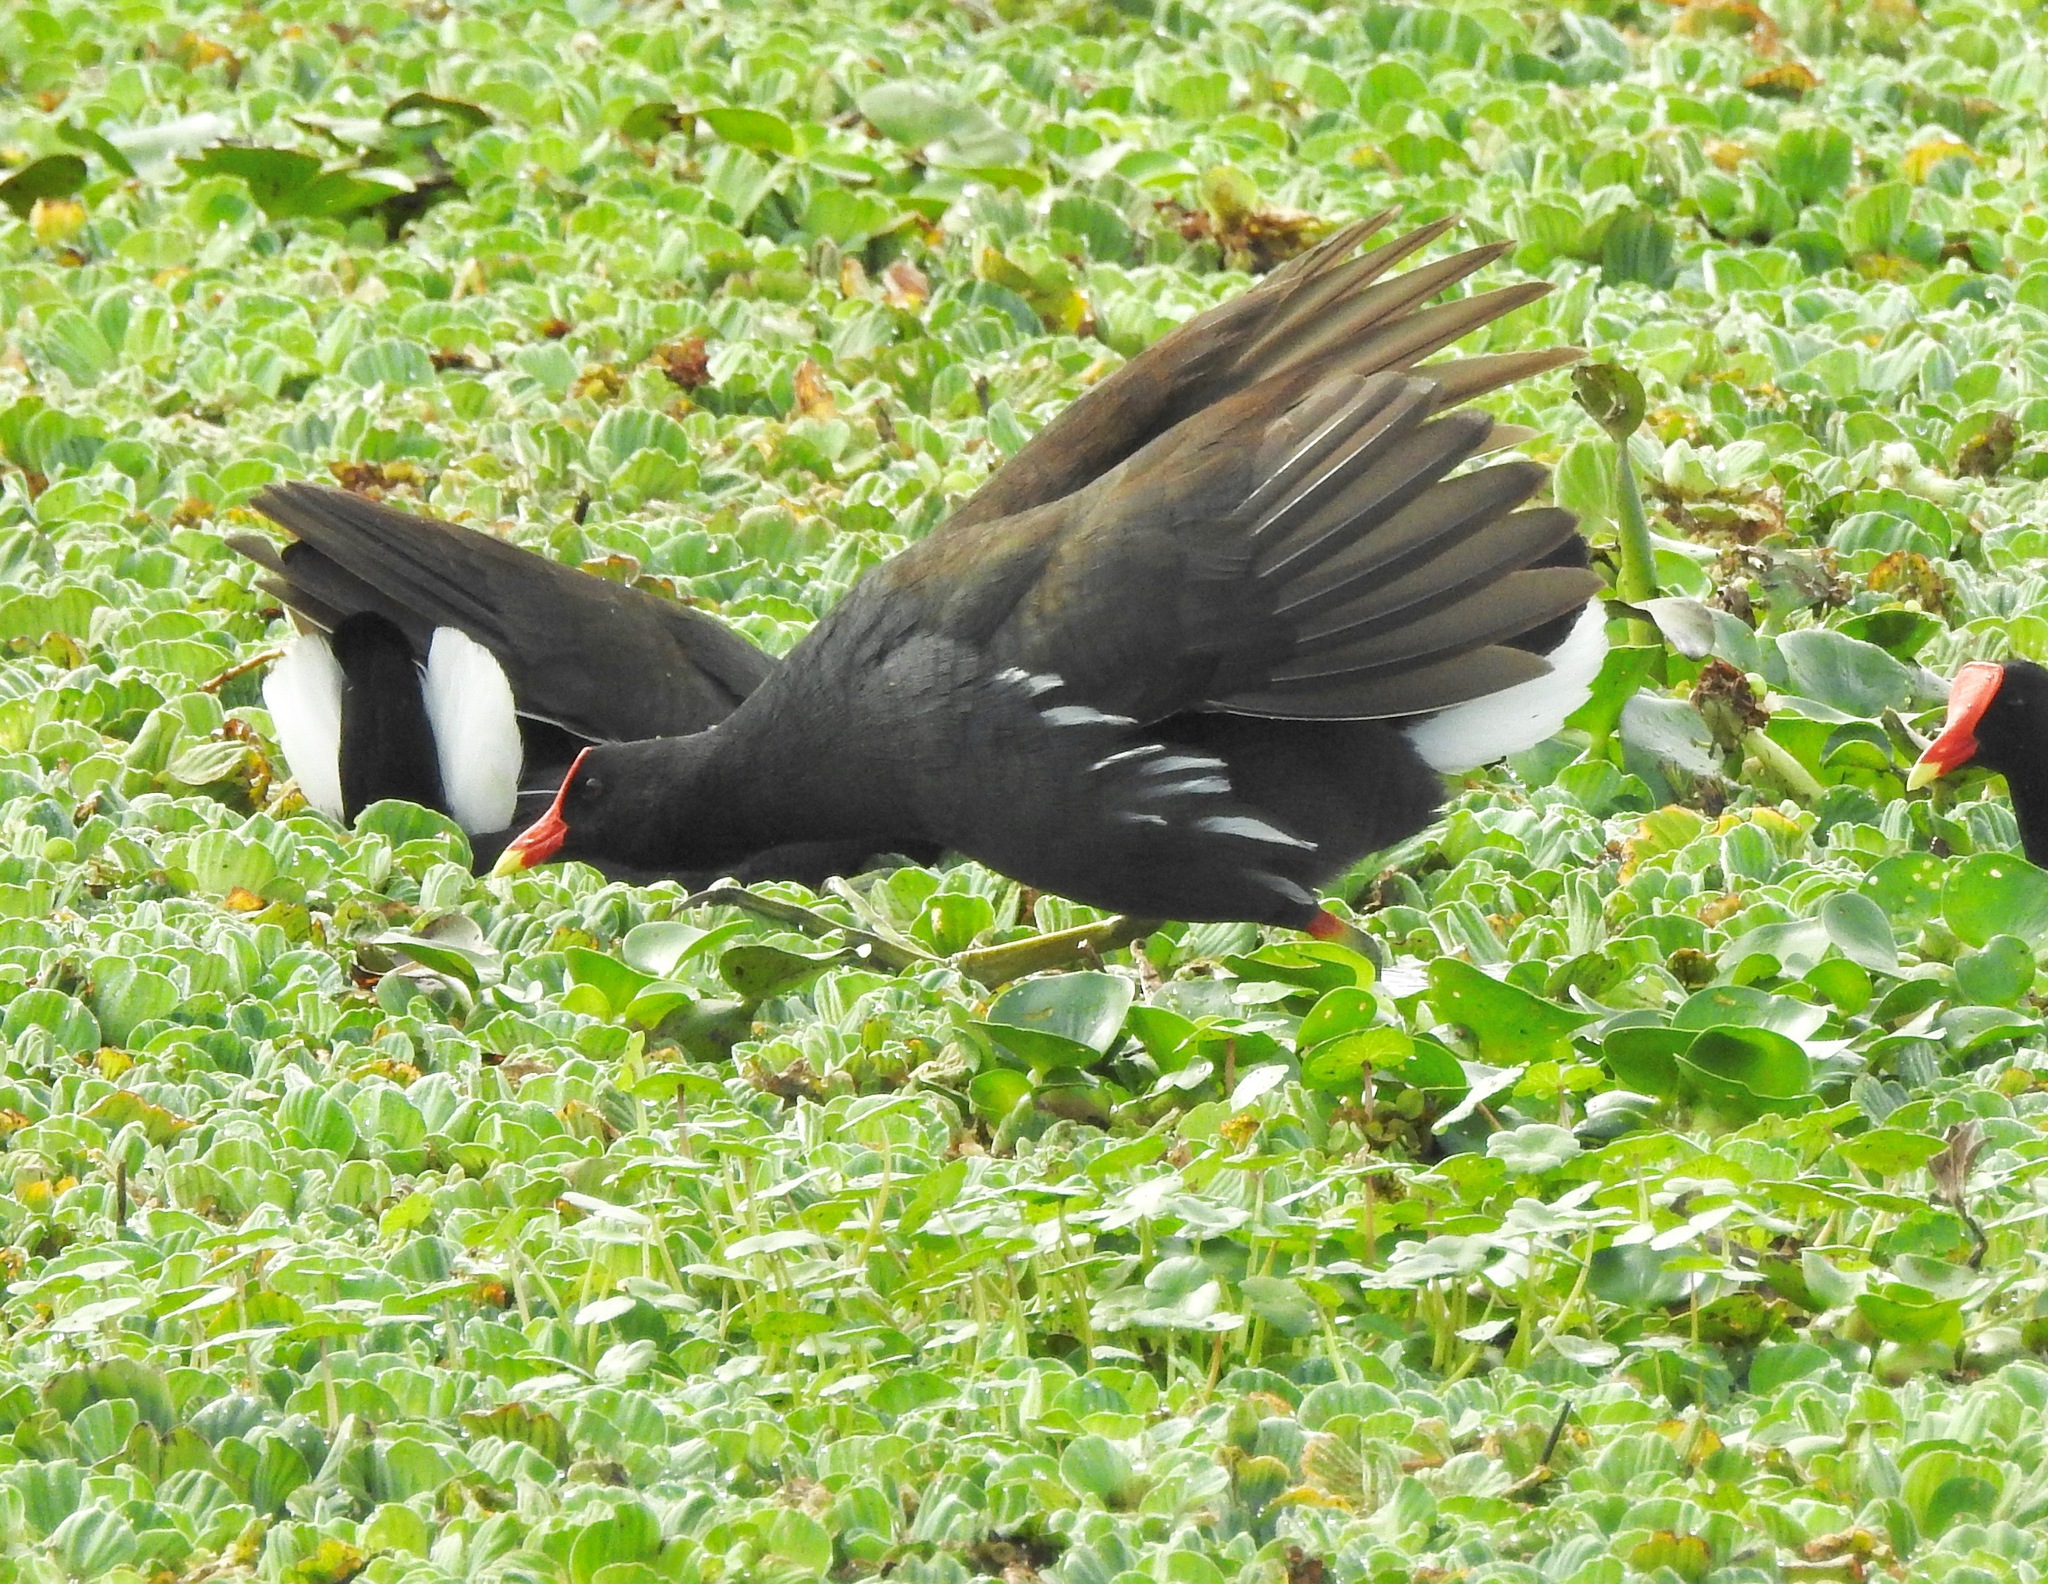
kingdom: Animalia
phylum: Chordata
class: Aves
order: Gruiformes
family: Rallidae
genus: Gallinula
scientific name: Gallinula chloropus
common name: Common moorhen
